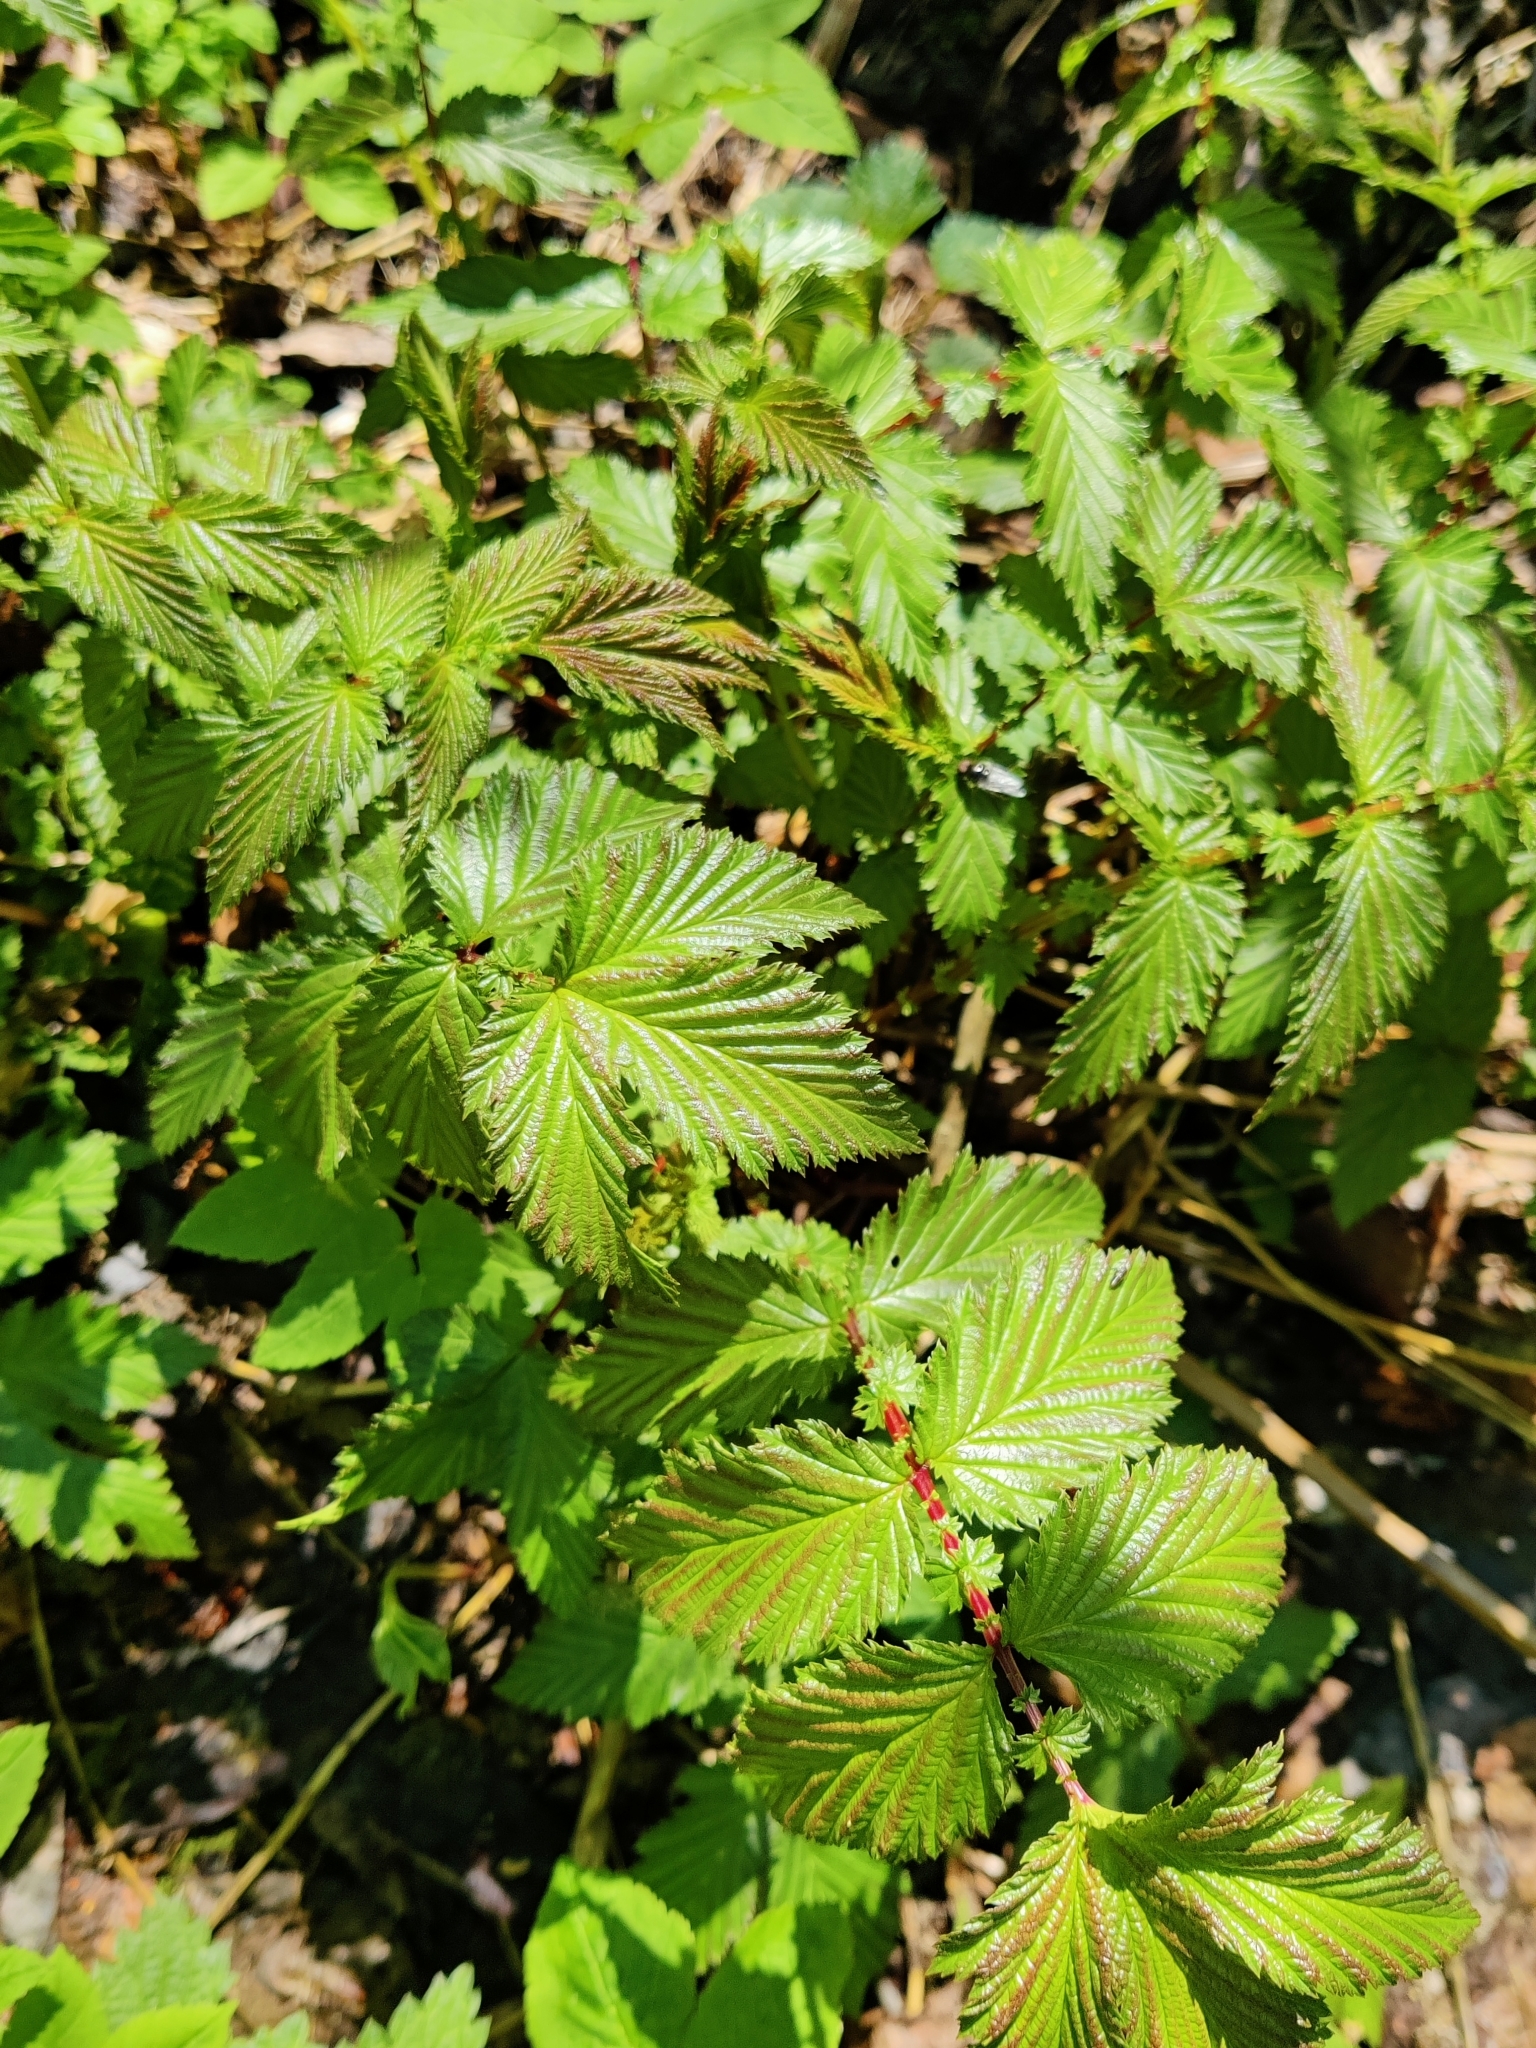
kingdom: Plantae
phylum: Tracheophyta
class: Magnoliopsida
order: Rosales
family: Rosaceae
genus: Filipendula
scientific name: Filipendula ulmaria
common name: Meadowsweet
